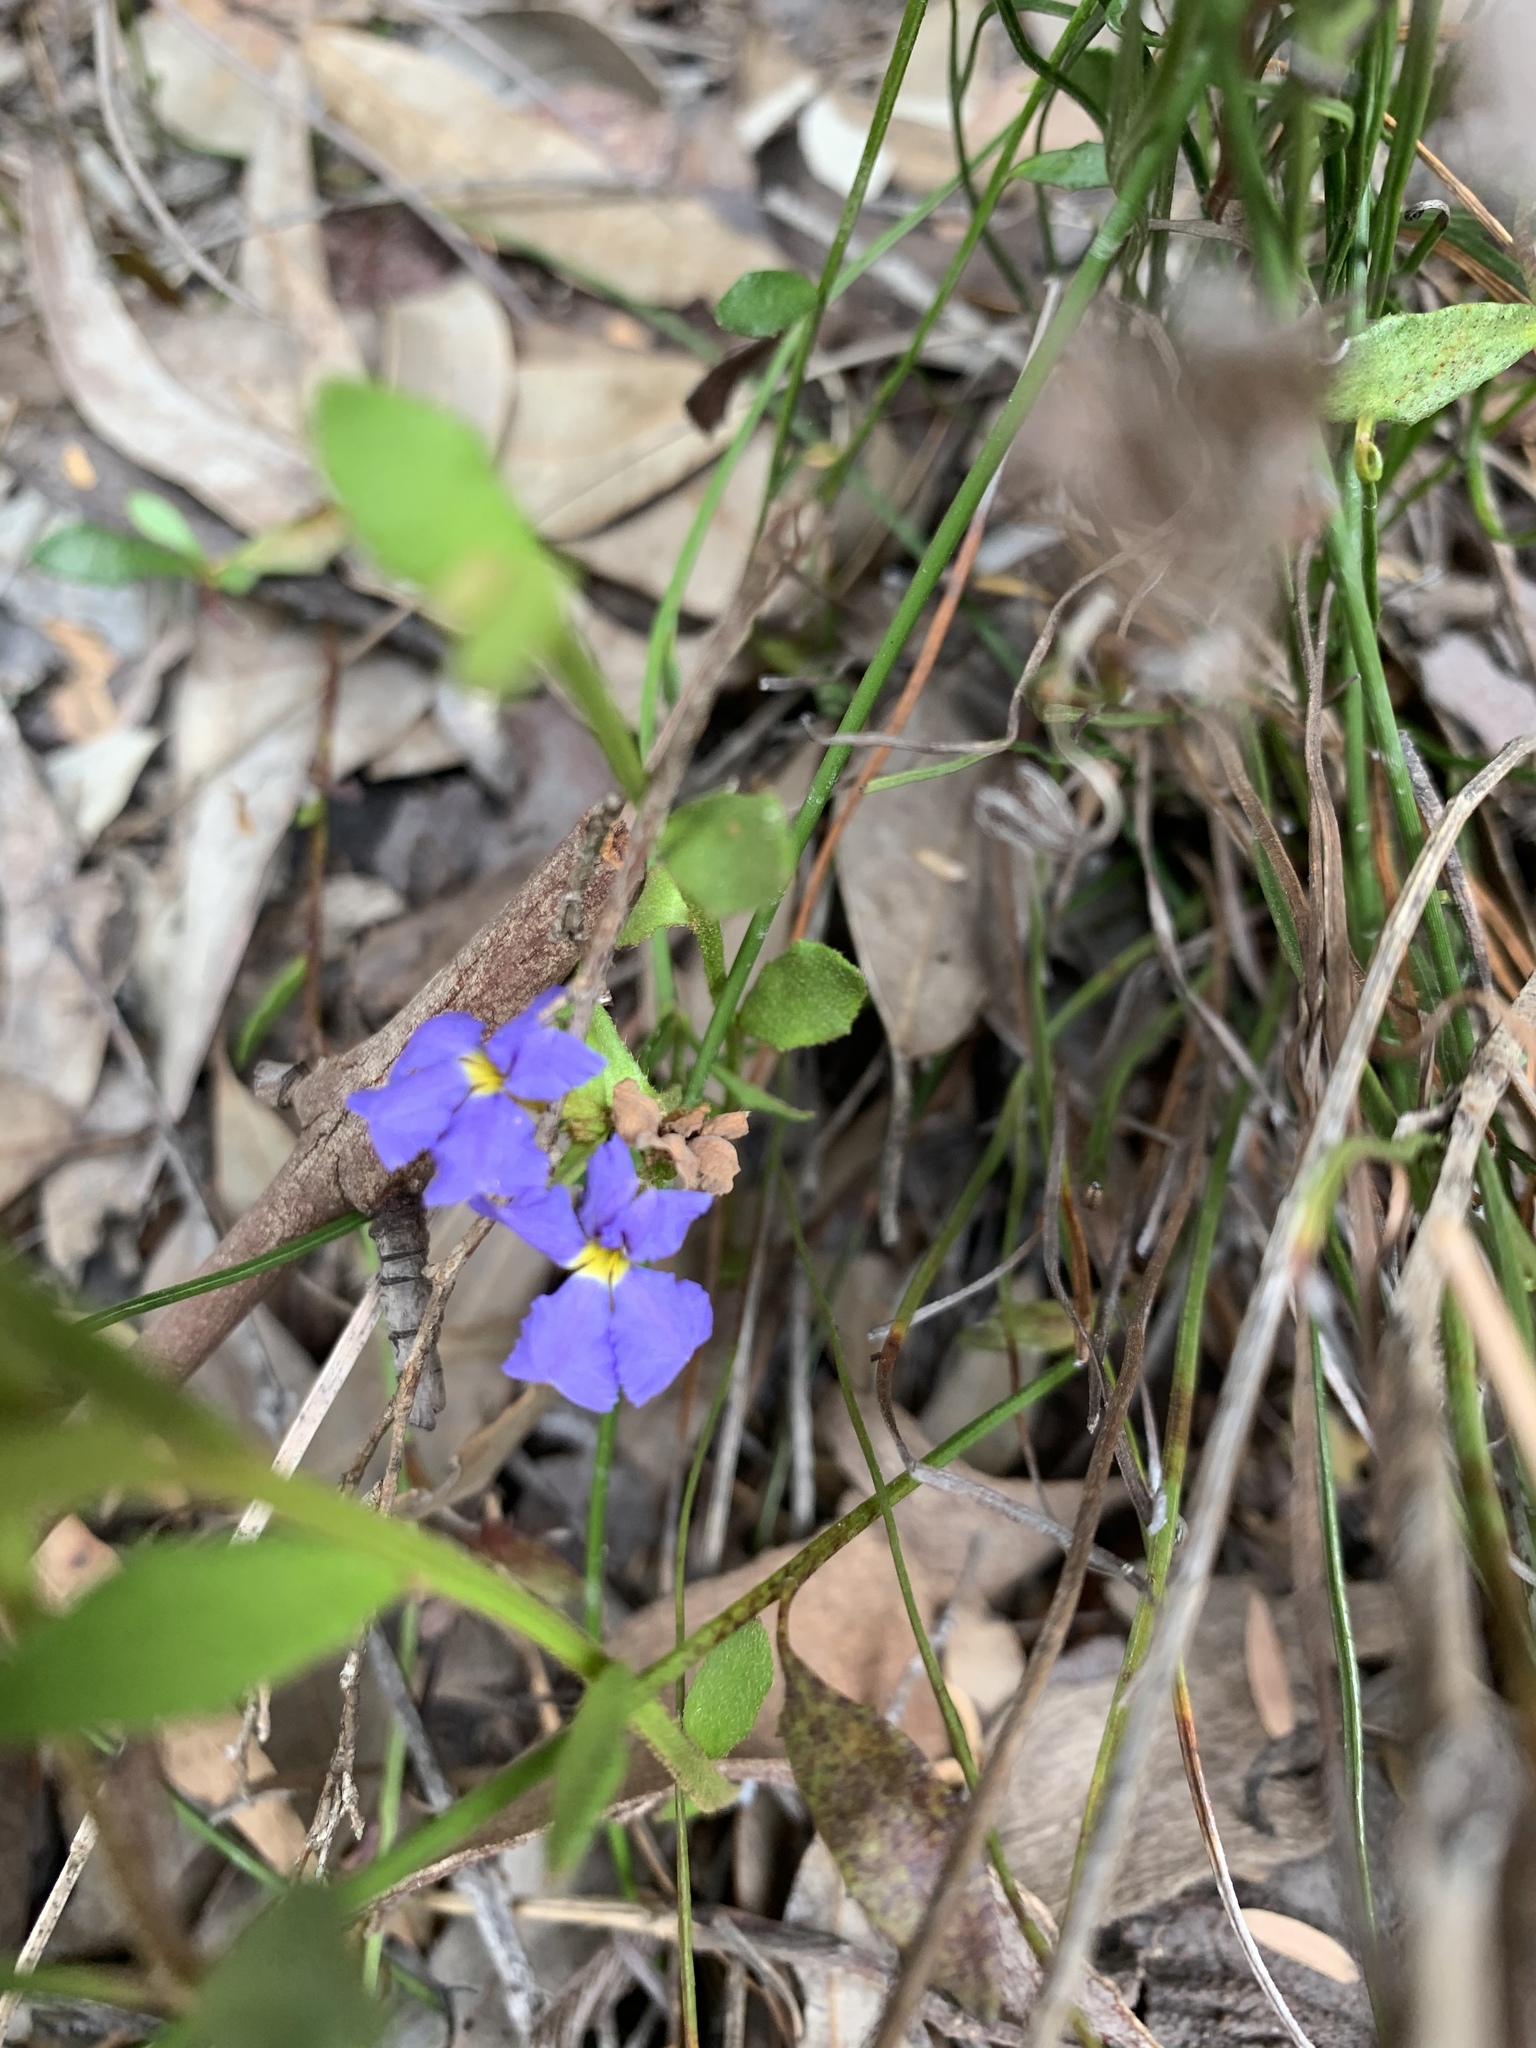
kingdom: Plantae
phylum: Tracheophyta
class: Magnoliopsida
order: Asterales
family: Goodeniaceae
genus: Dampiera
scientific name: Dampiera stricta
